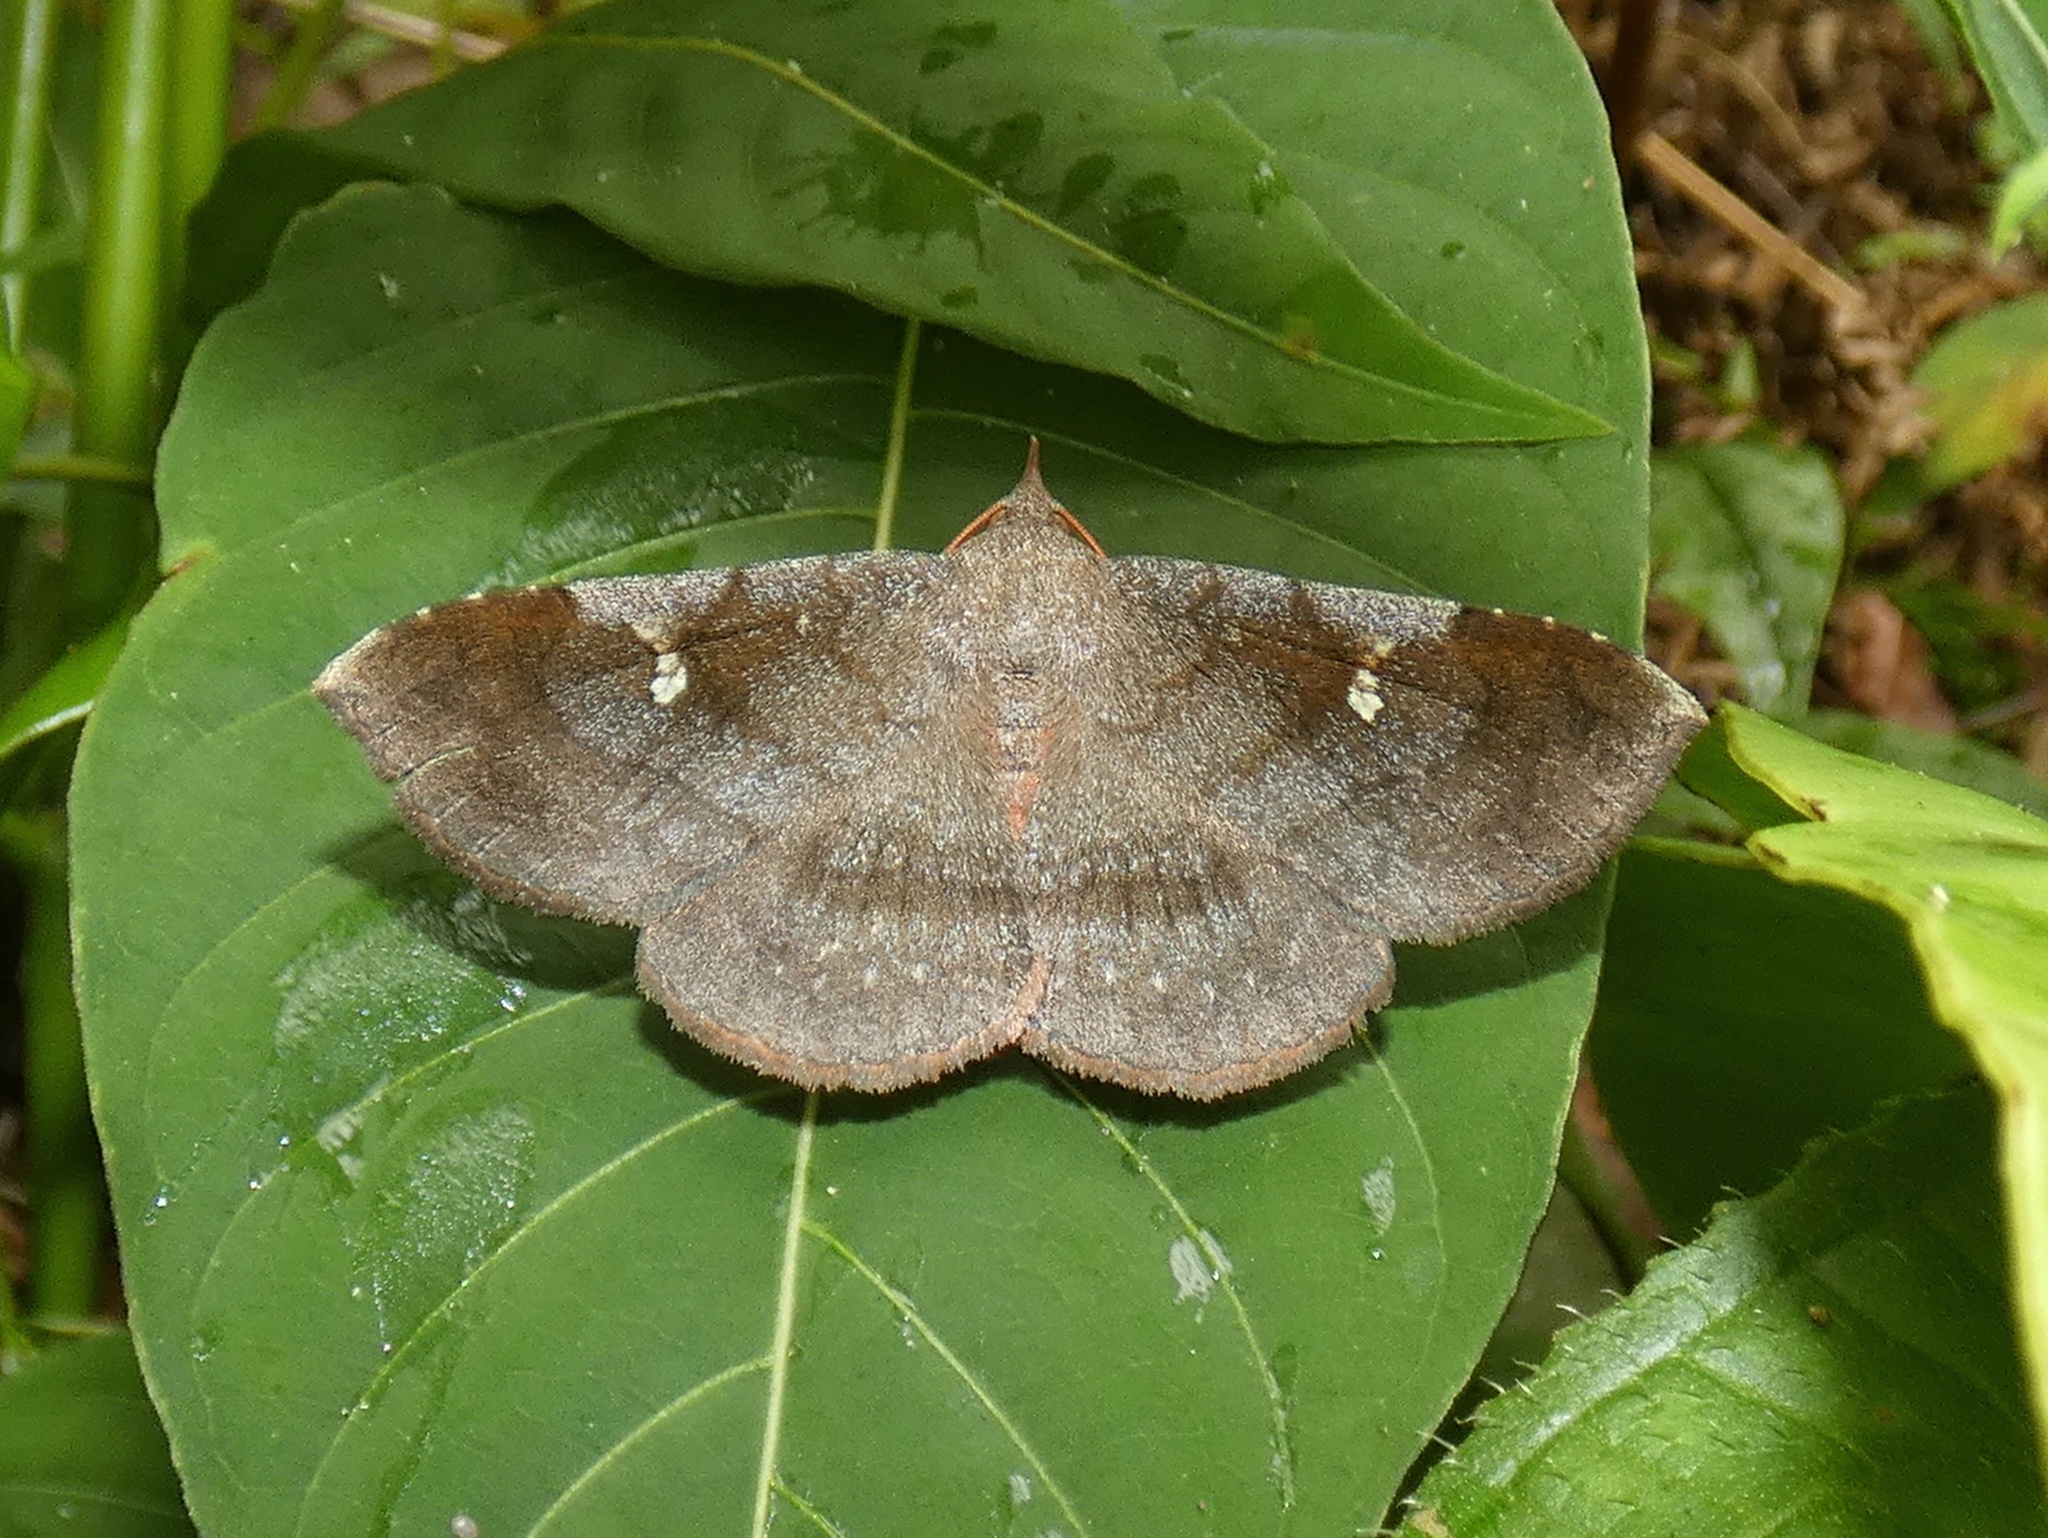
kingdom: Animalia
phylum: Arthropoda
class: Insecta
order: Lepidoptera
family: Erebidae
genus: Azeta
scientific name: Azeta melanea
